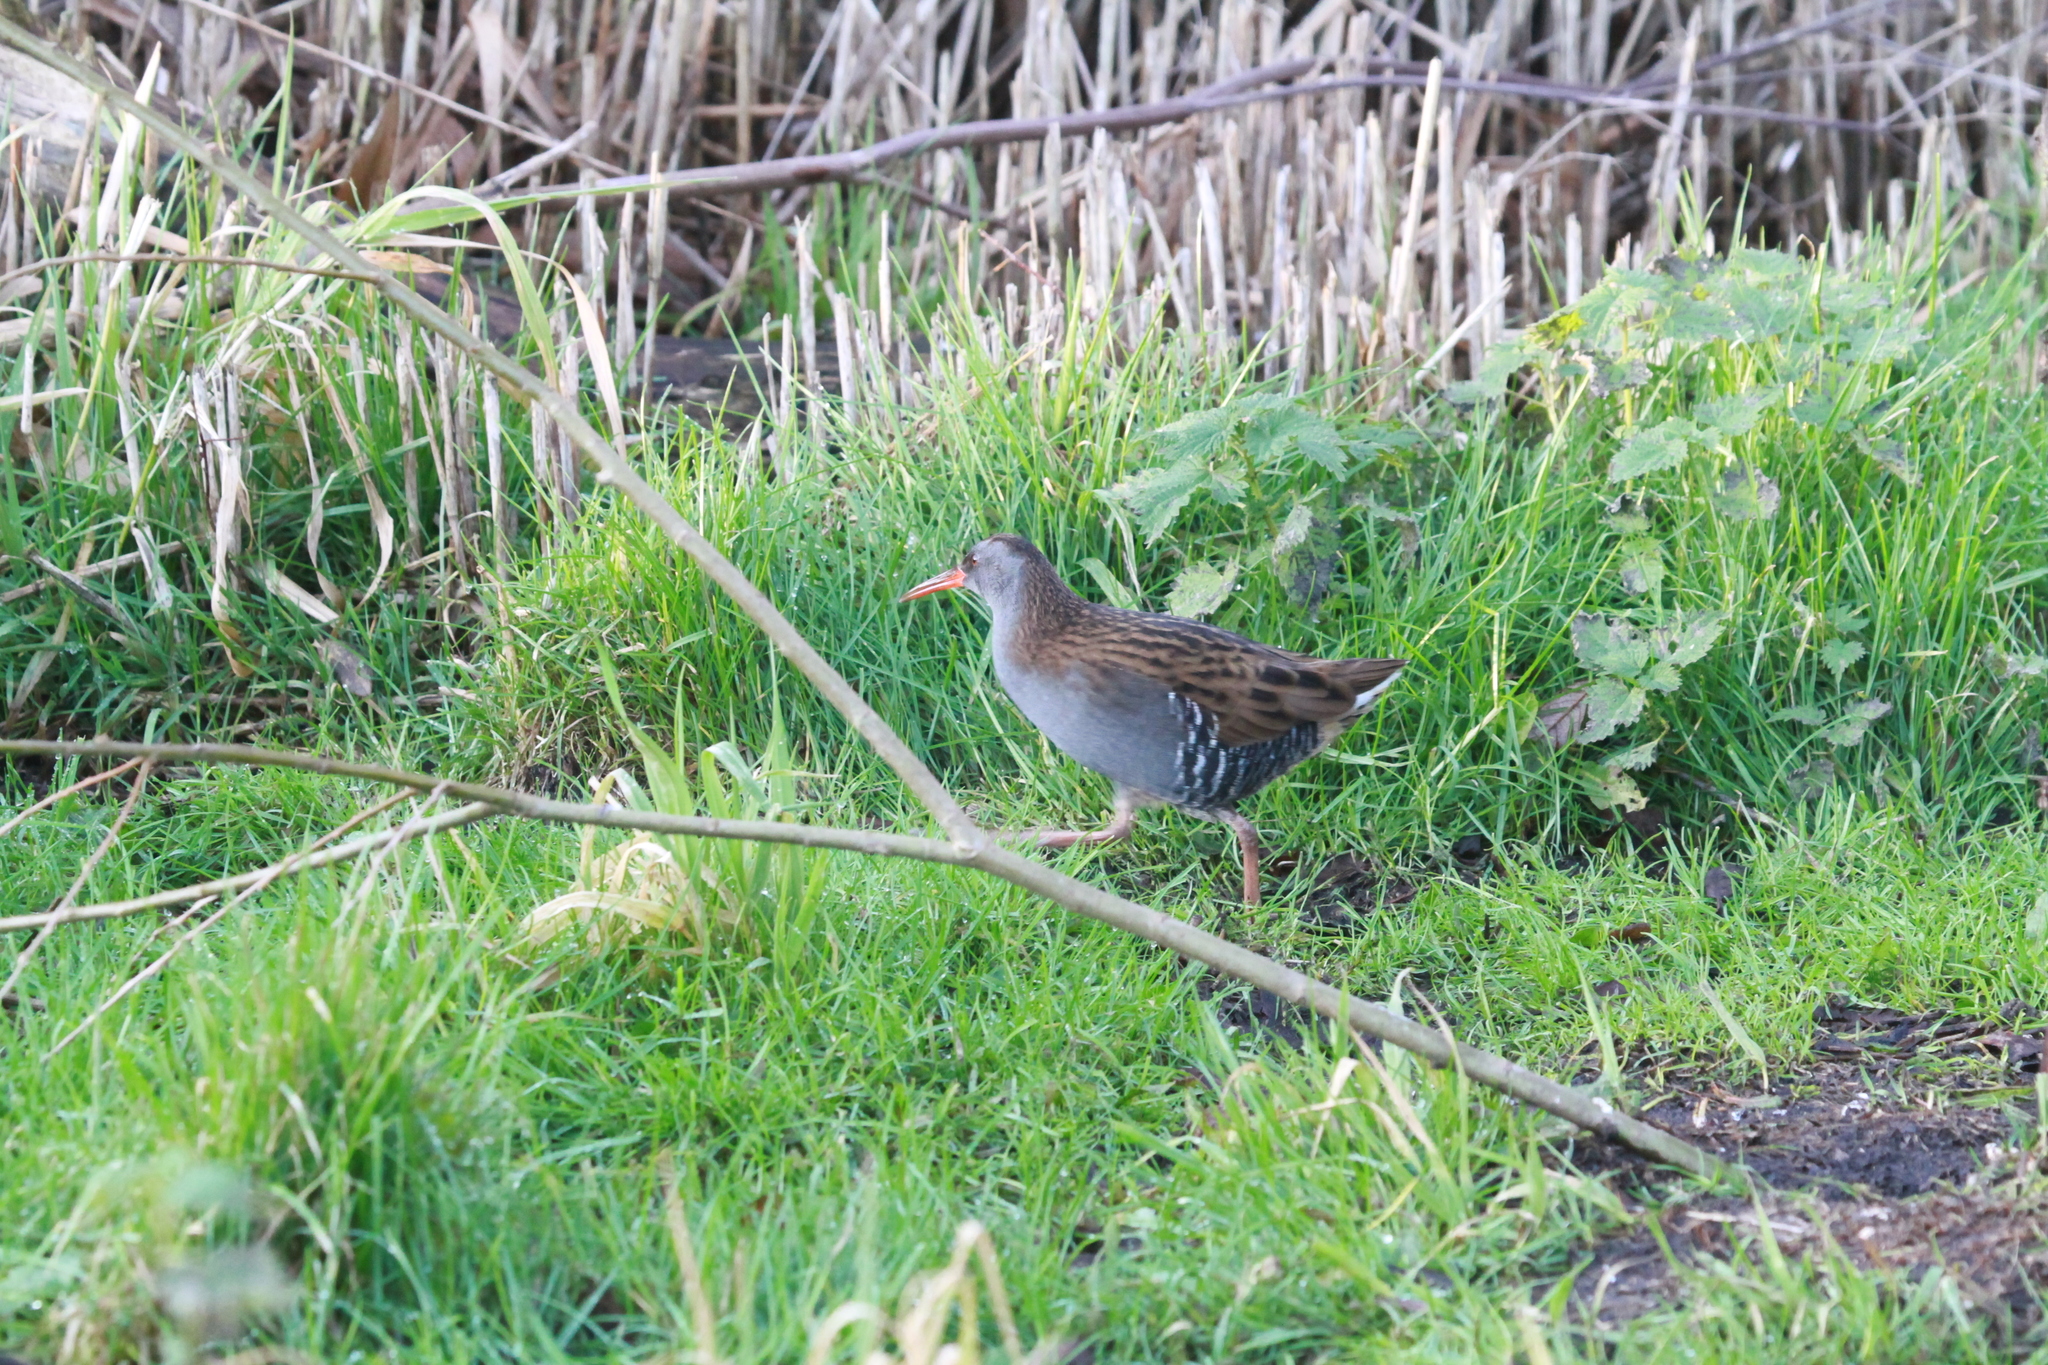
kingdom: Animalia
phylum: Chordata
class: Aves
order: Gruiformes
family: Rallidae
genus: Rallus
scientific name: Rallus aquaticus
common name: Water rail
